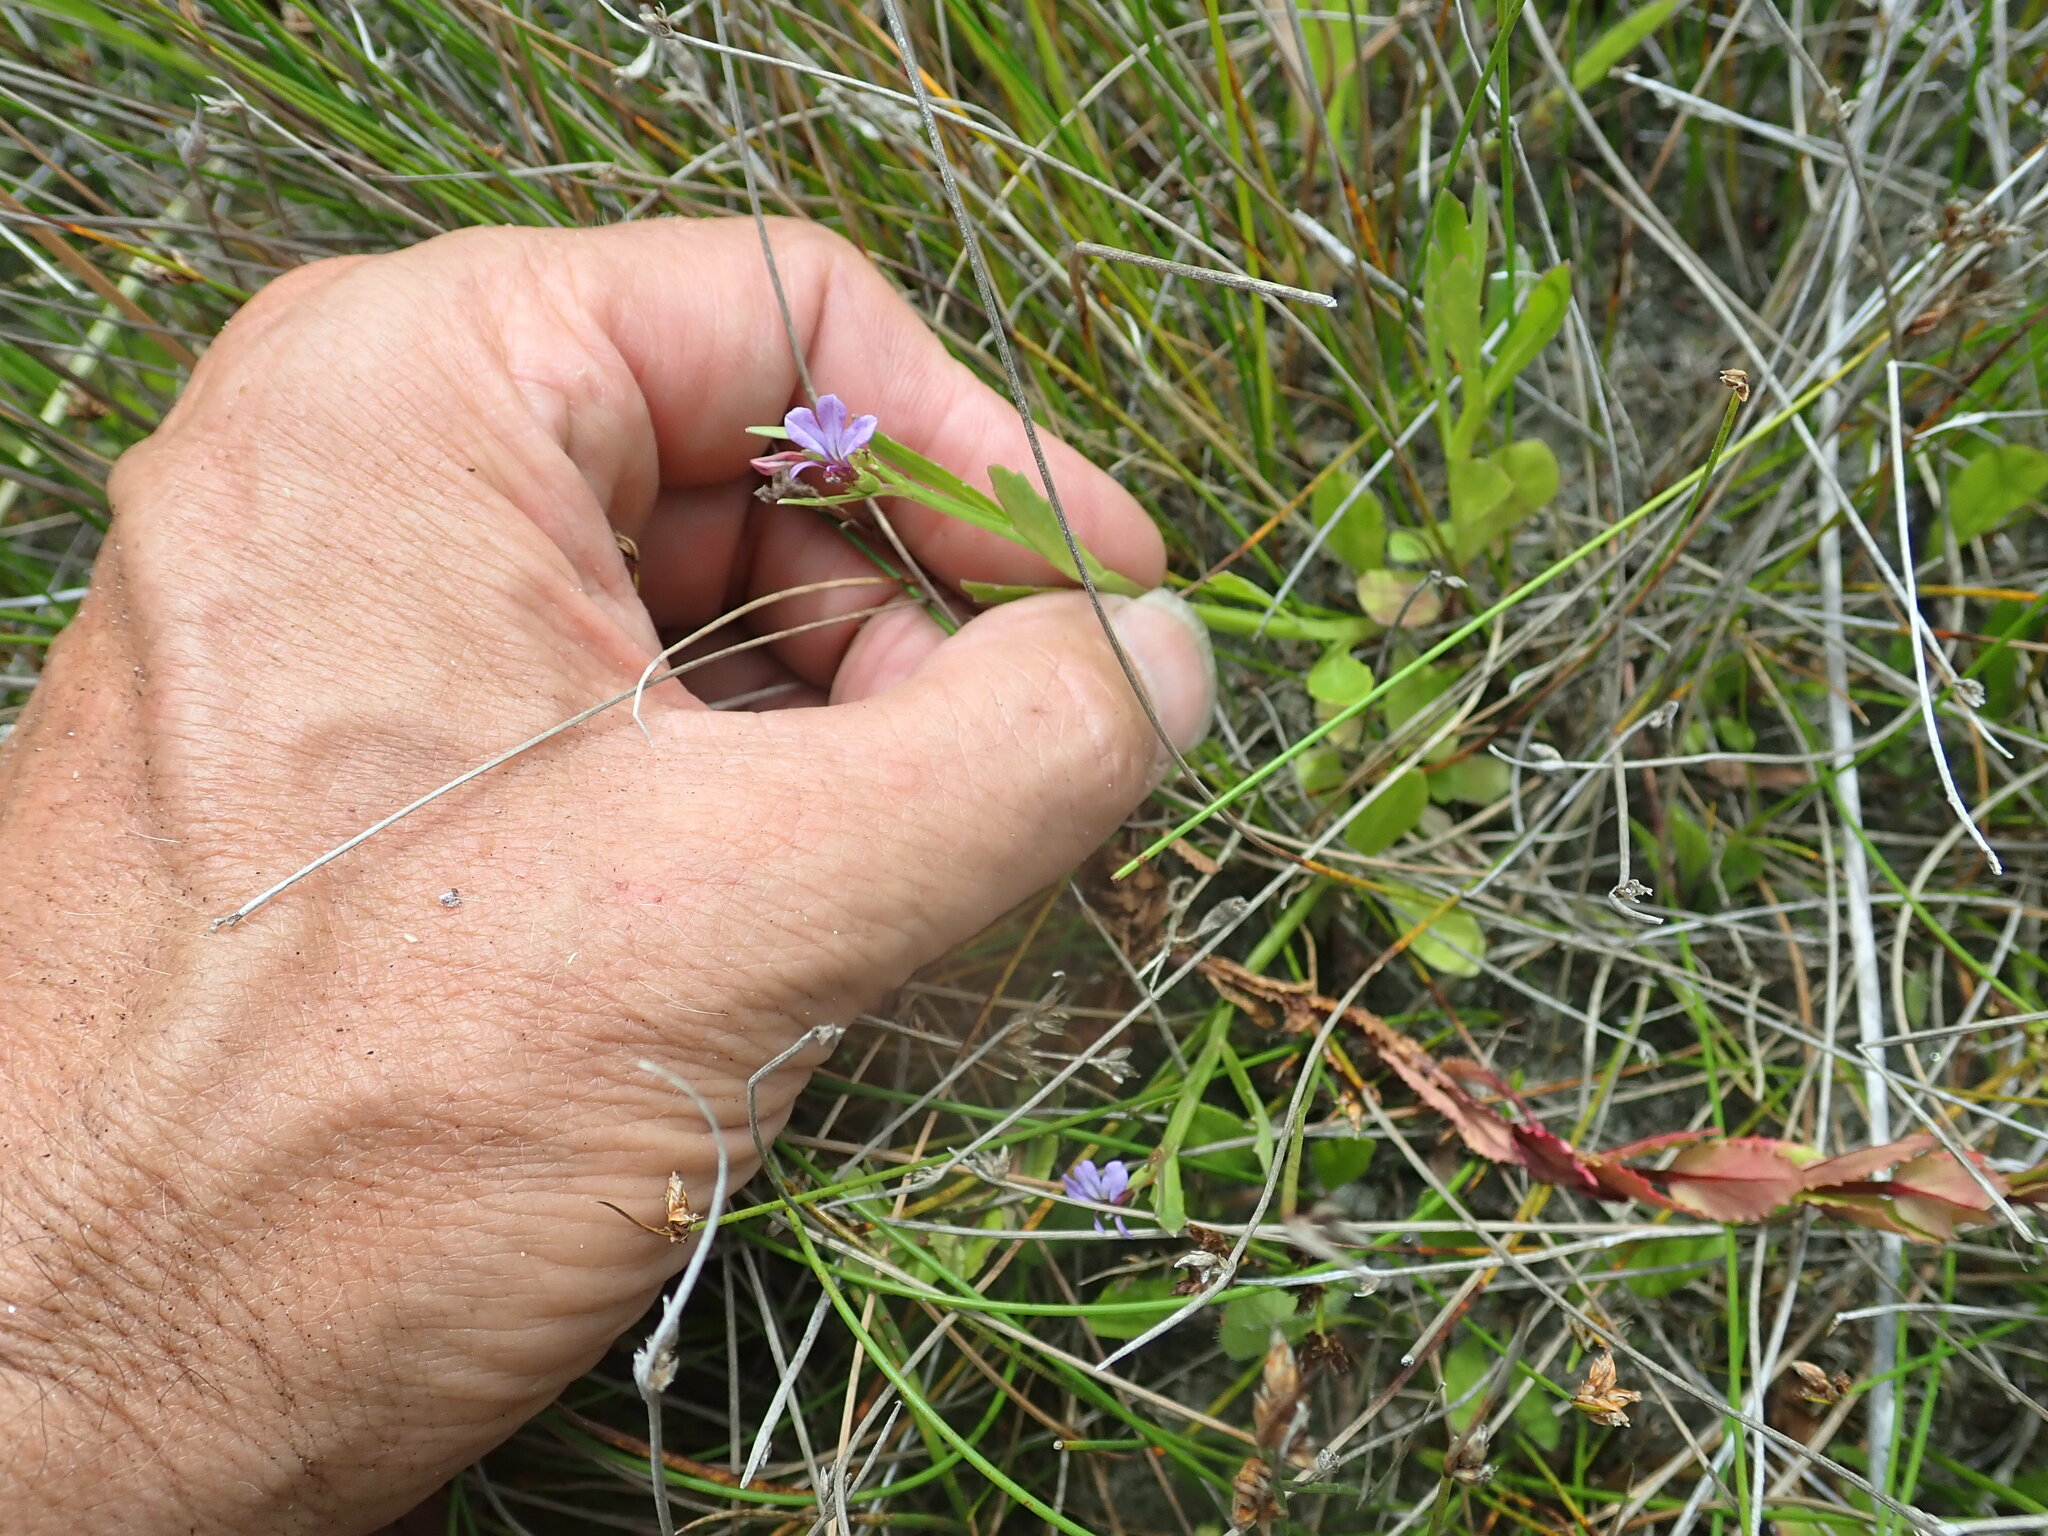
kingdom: Plantae
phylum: Tracheophyta
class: Magnoliopsida
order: Asterales
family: Campanulaceae
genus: Lobelia
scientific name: Lobelia anceps
